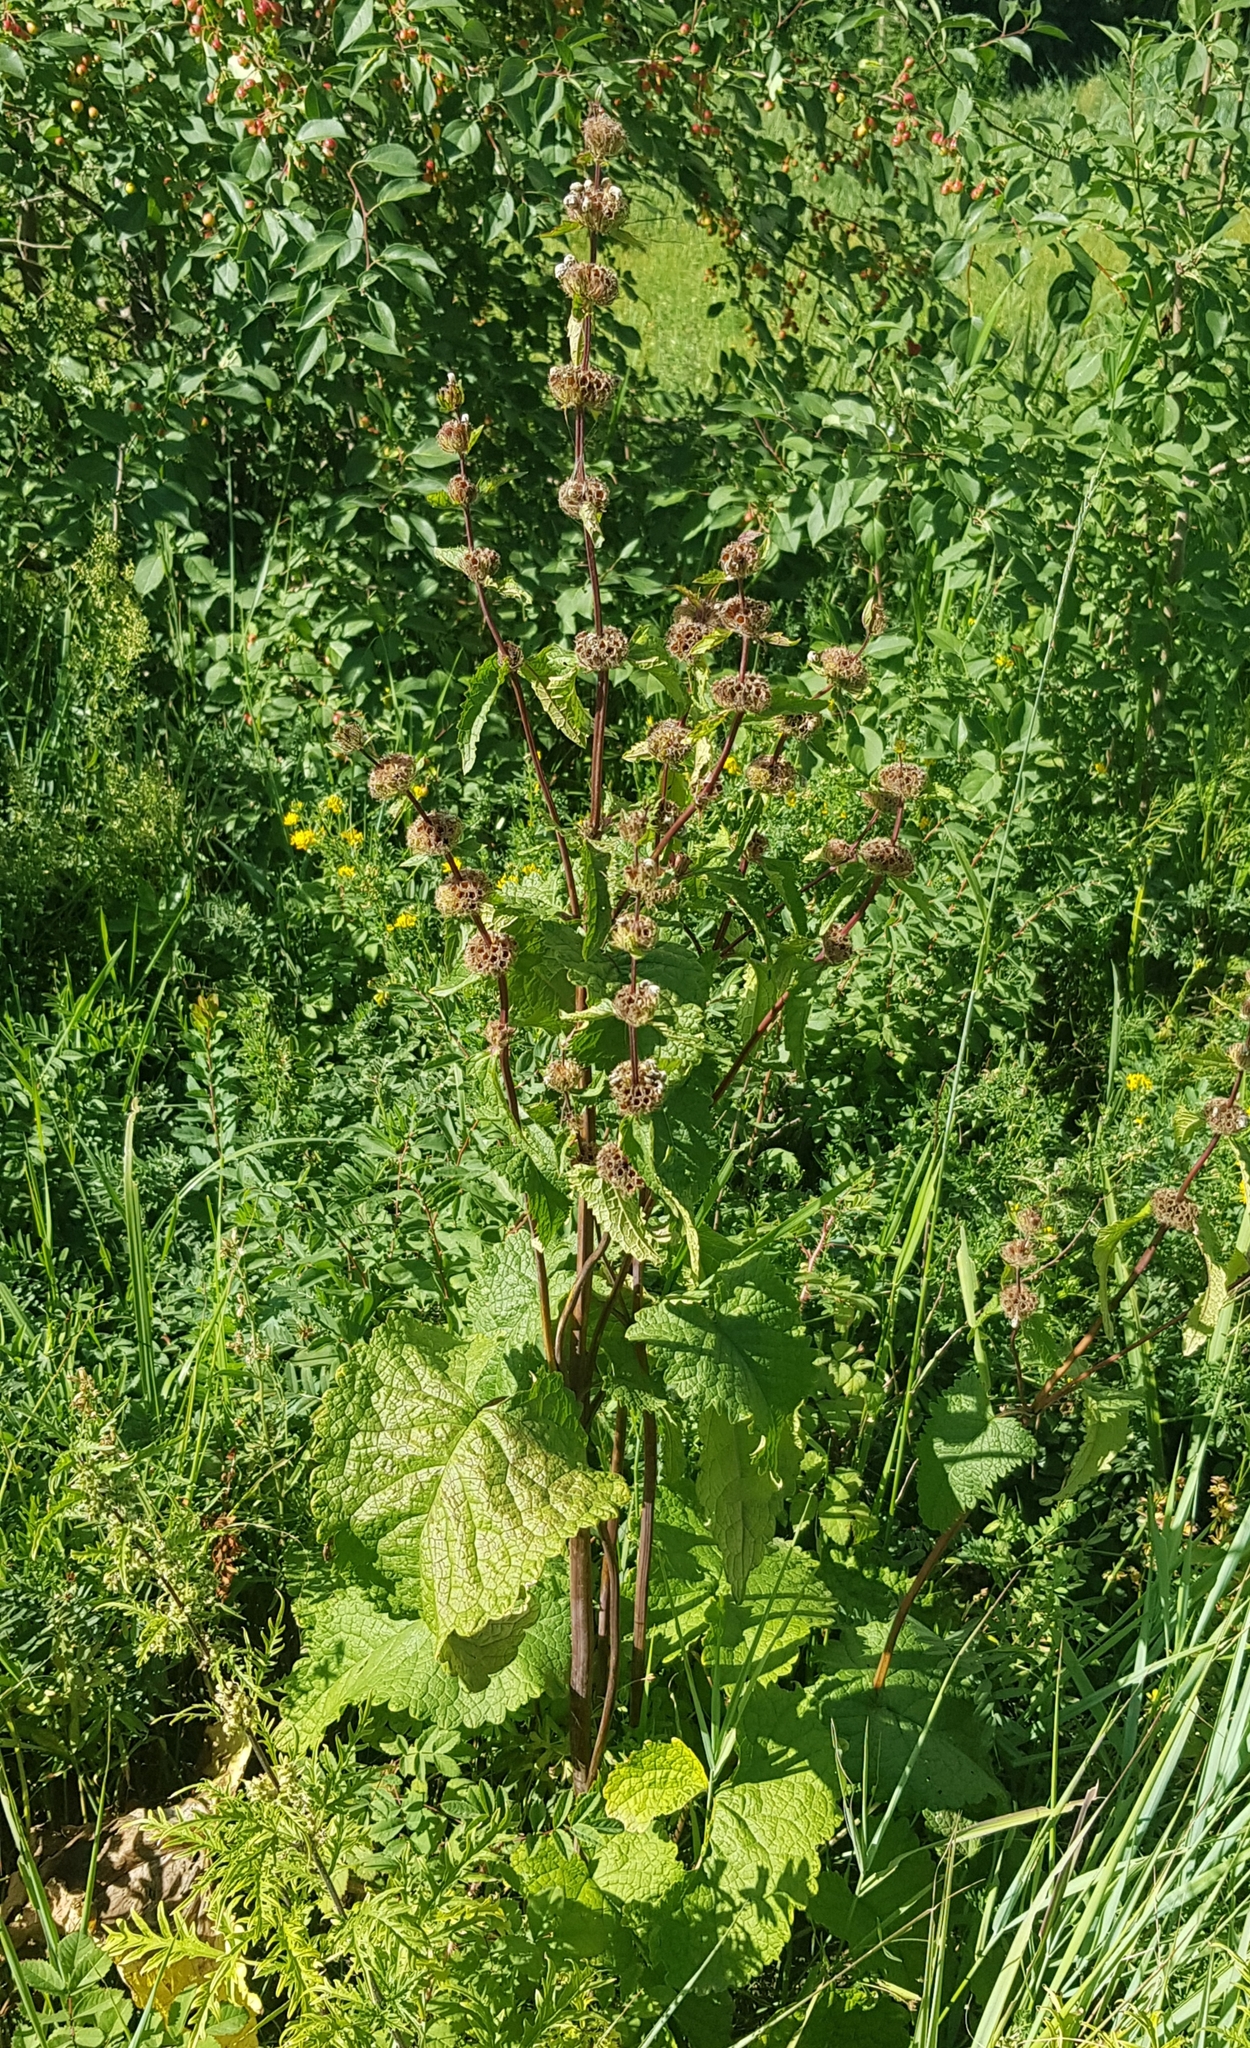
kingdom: Plantae
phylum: Tracheophyta
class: Magnoliopsida
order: Lamiales
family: Lamiaceae
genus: Phlomoides
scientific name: Phlomoides tuberosa
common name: Tuberous jerusalem sage
